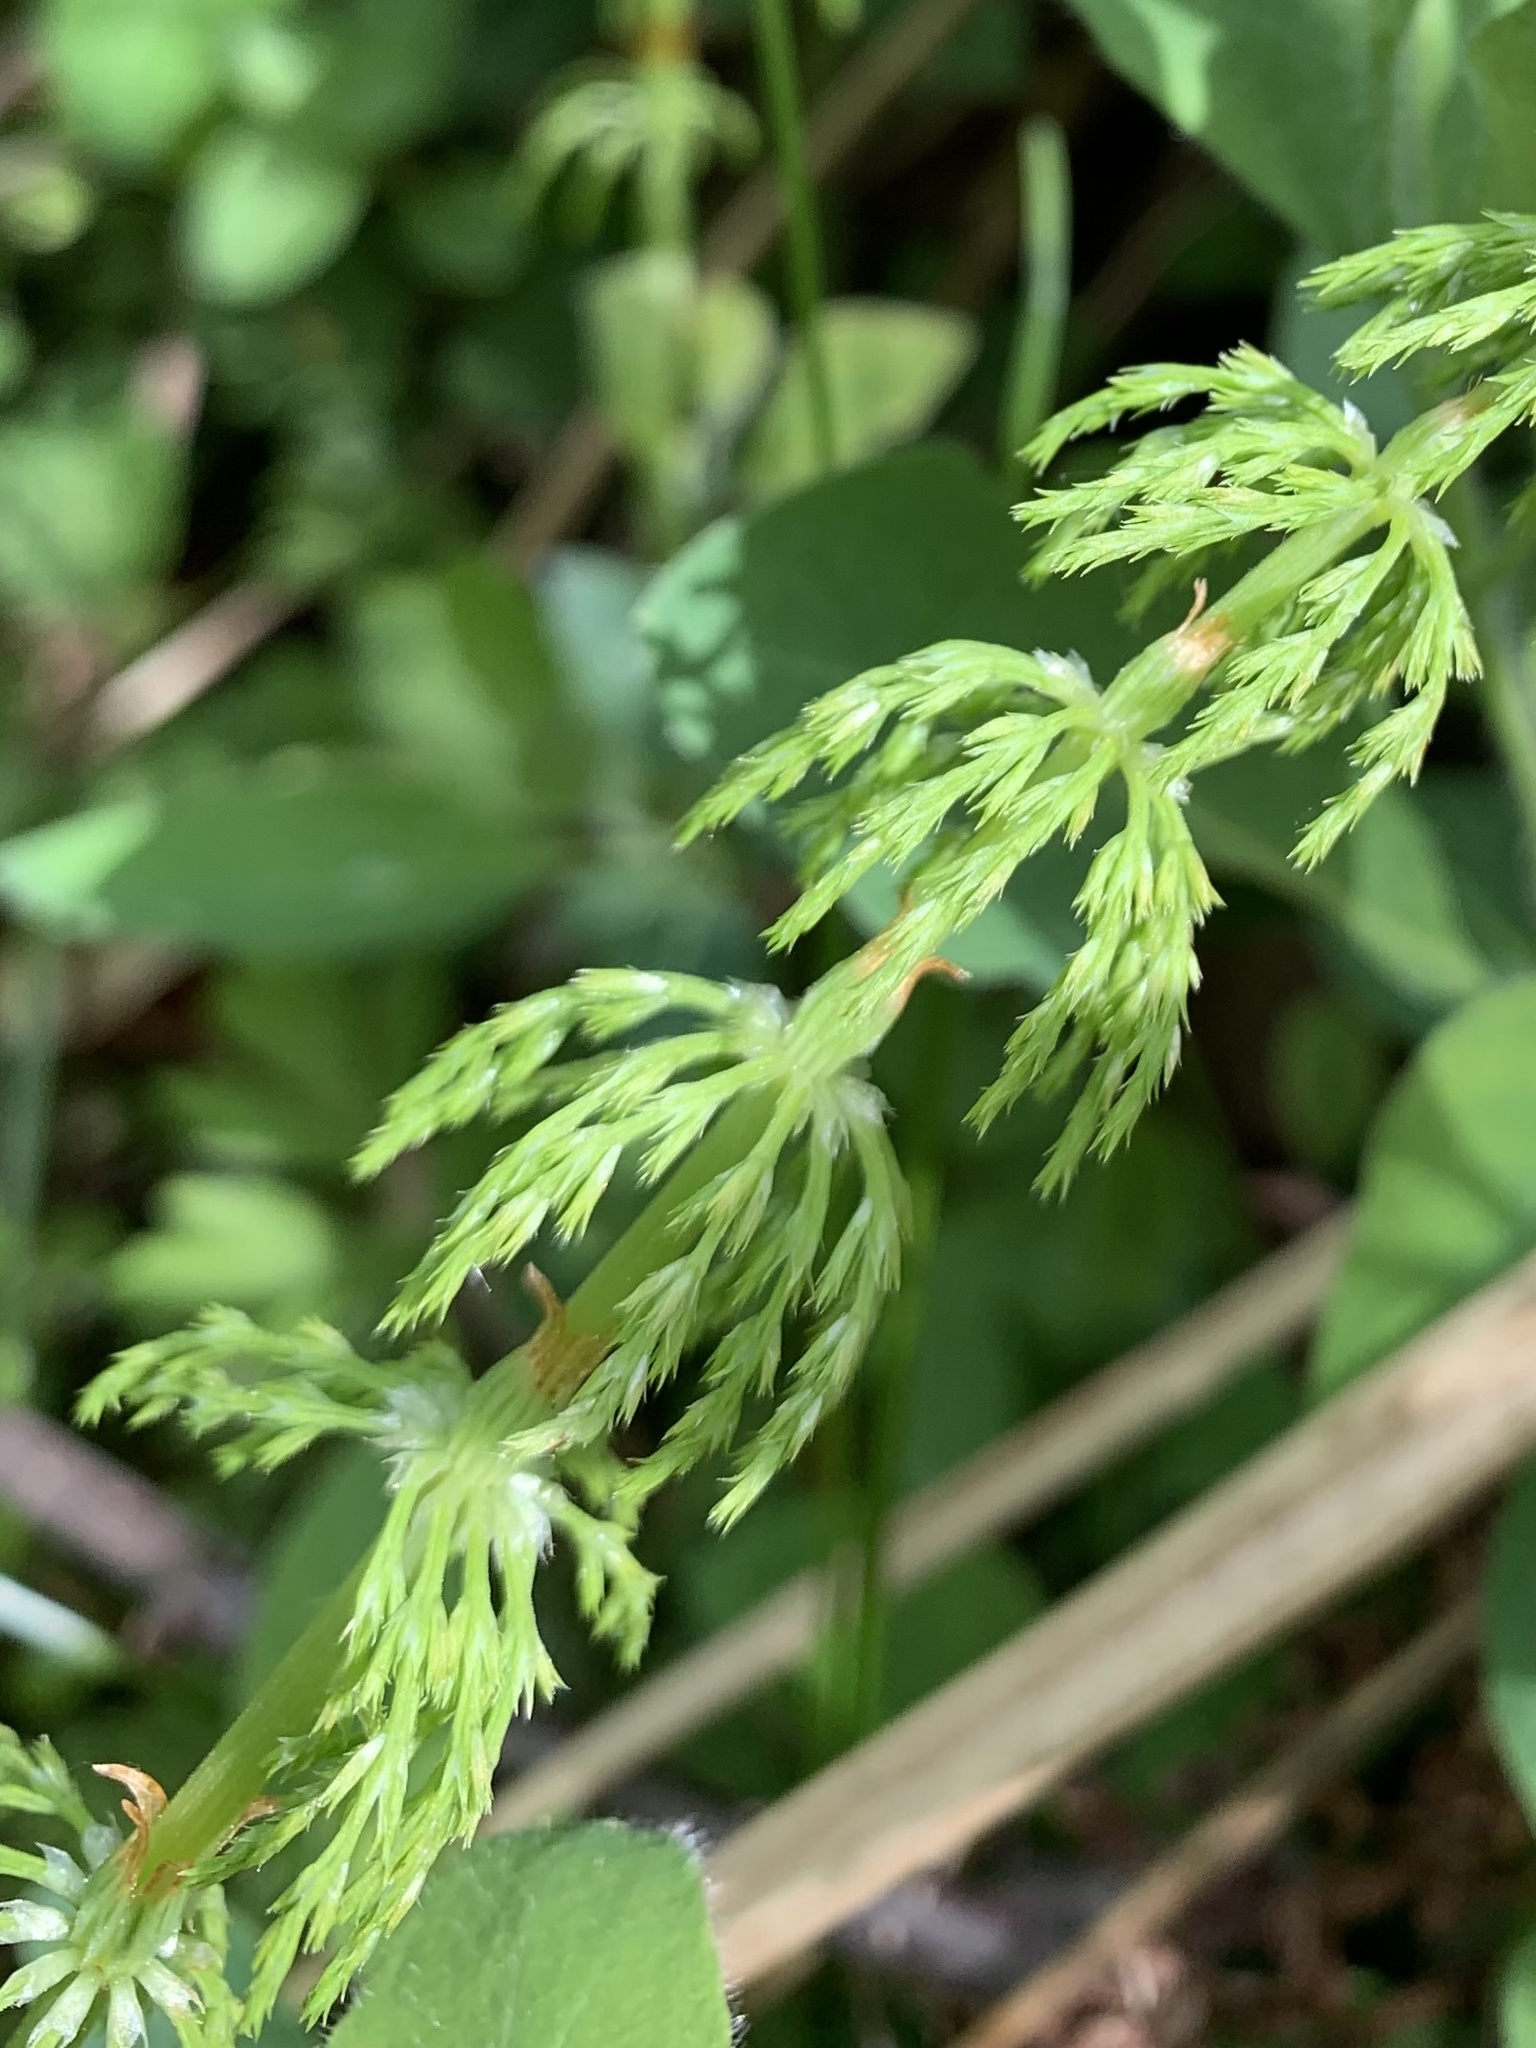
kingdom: Plantae
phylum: Tracheophyta
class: Polypodiopsida
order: Equisetales
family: Equisetaceae
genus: Equisetum
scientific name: Equisetum sylvaticum
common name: Wood horsetail
